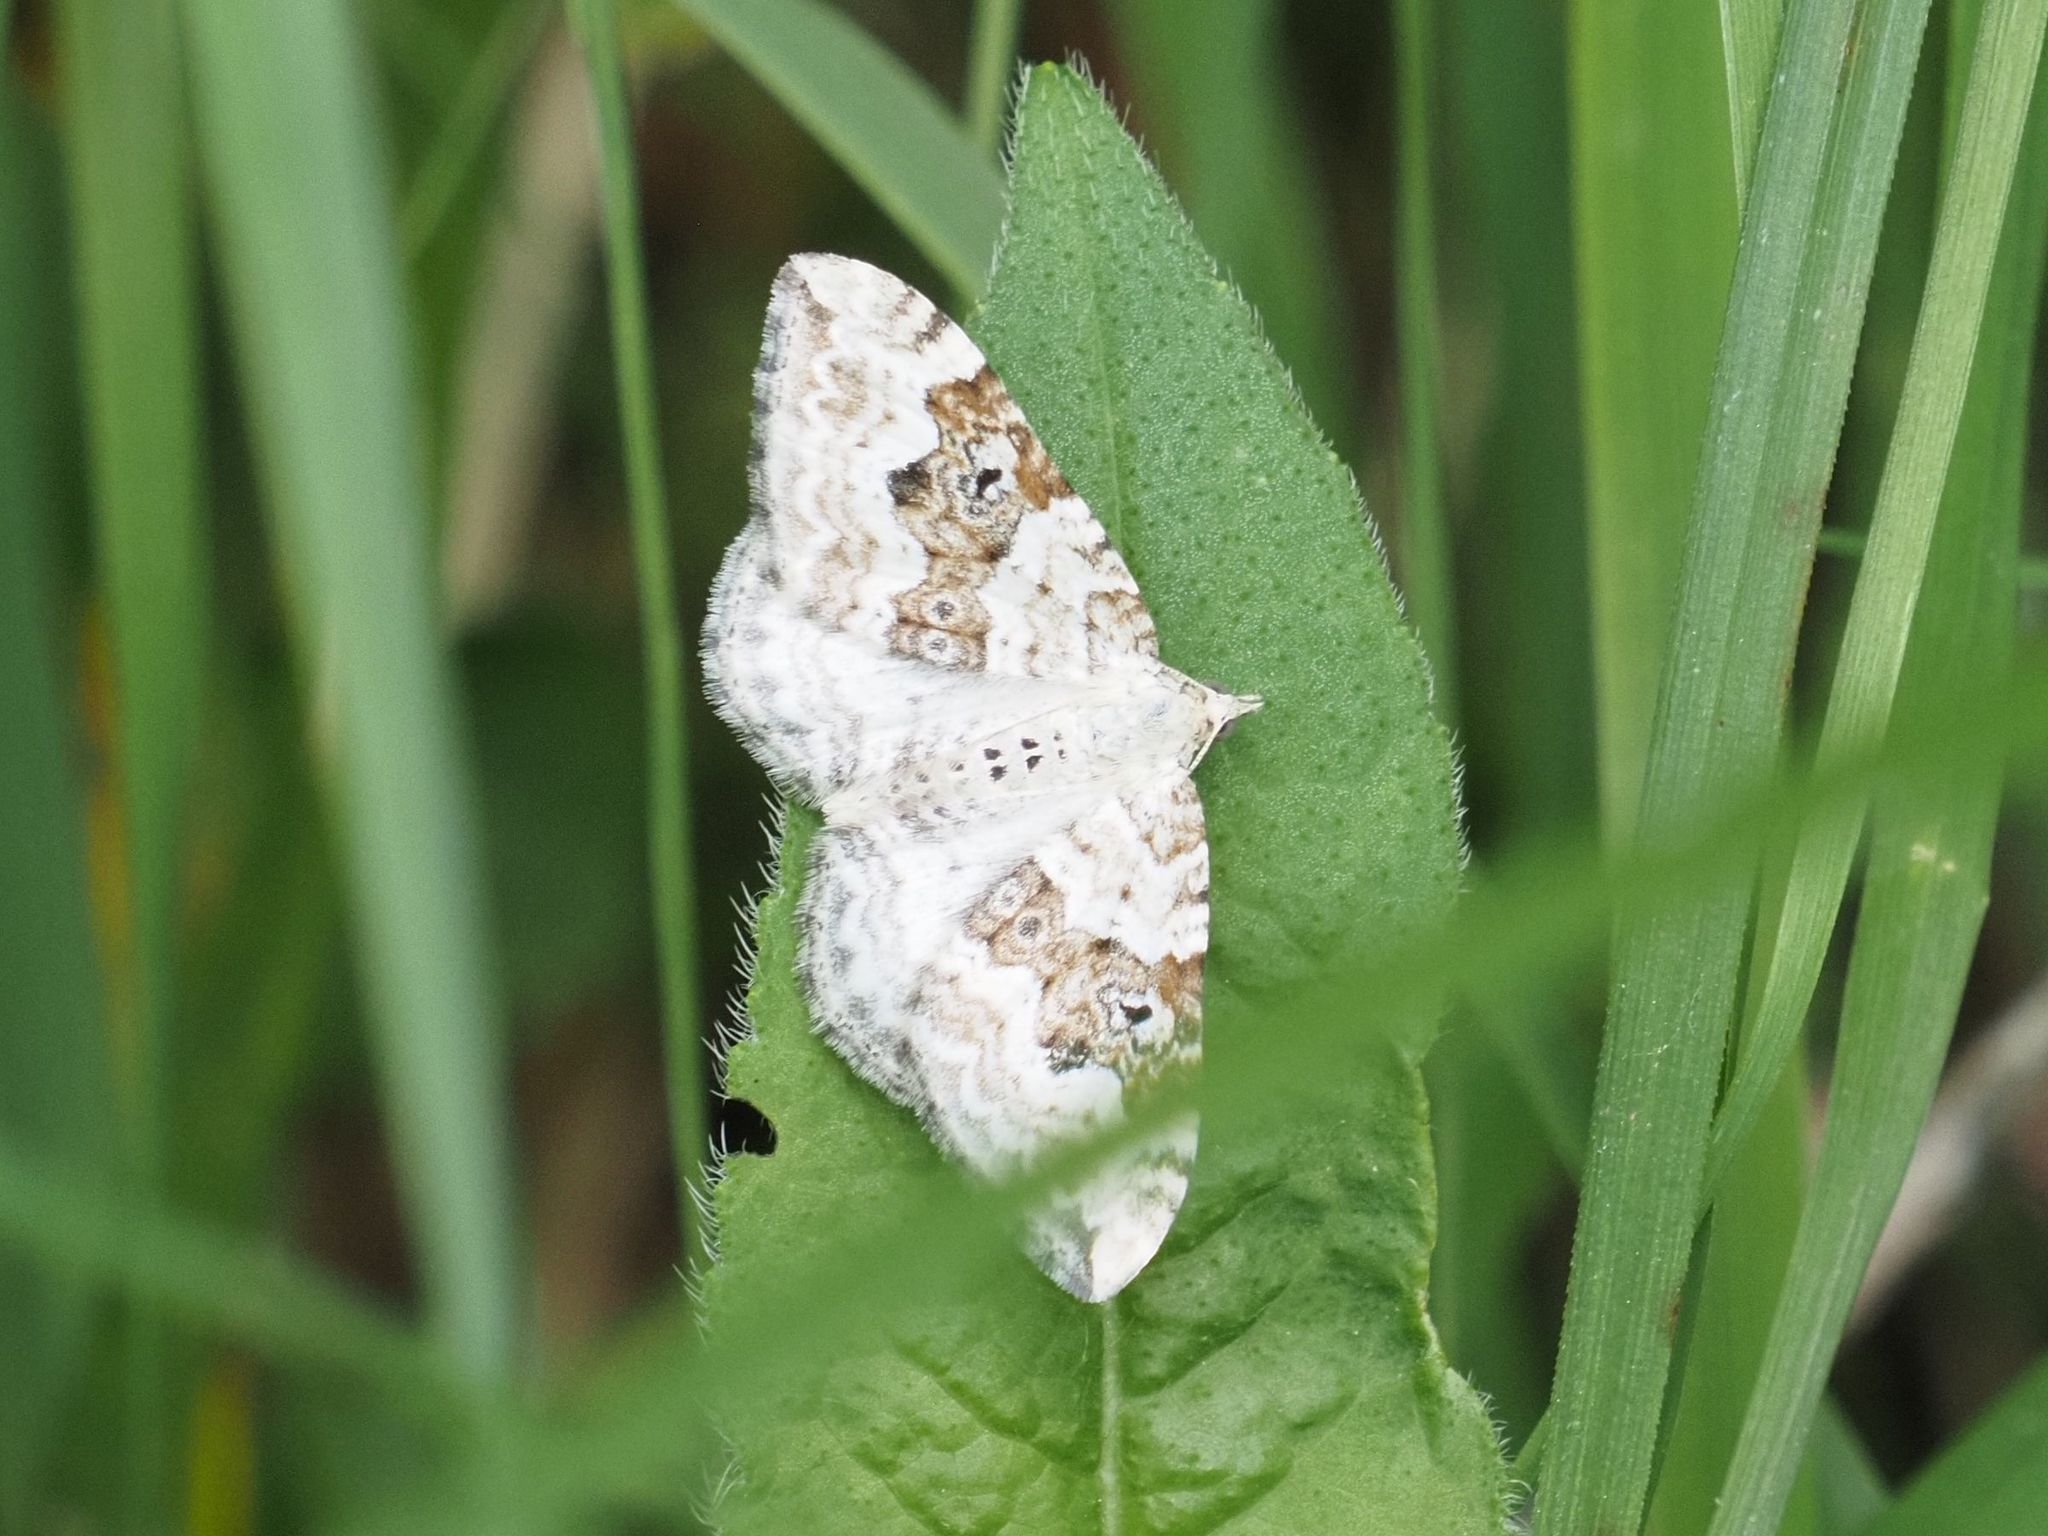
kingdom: Animalia
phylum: Arthropoda
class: Insecta
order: Lepidoptera
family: Geometridae
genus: Xanthorhoe
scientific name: Xanthorhoe montanata
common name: Silver-ground carpet
